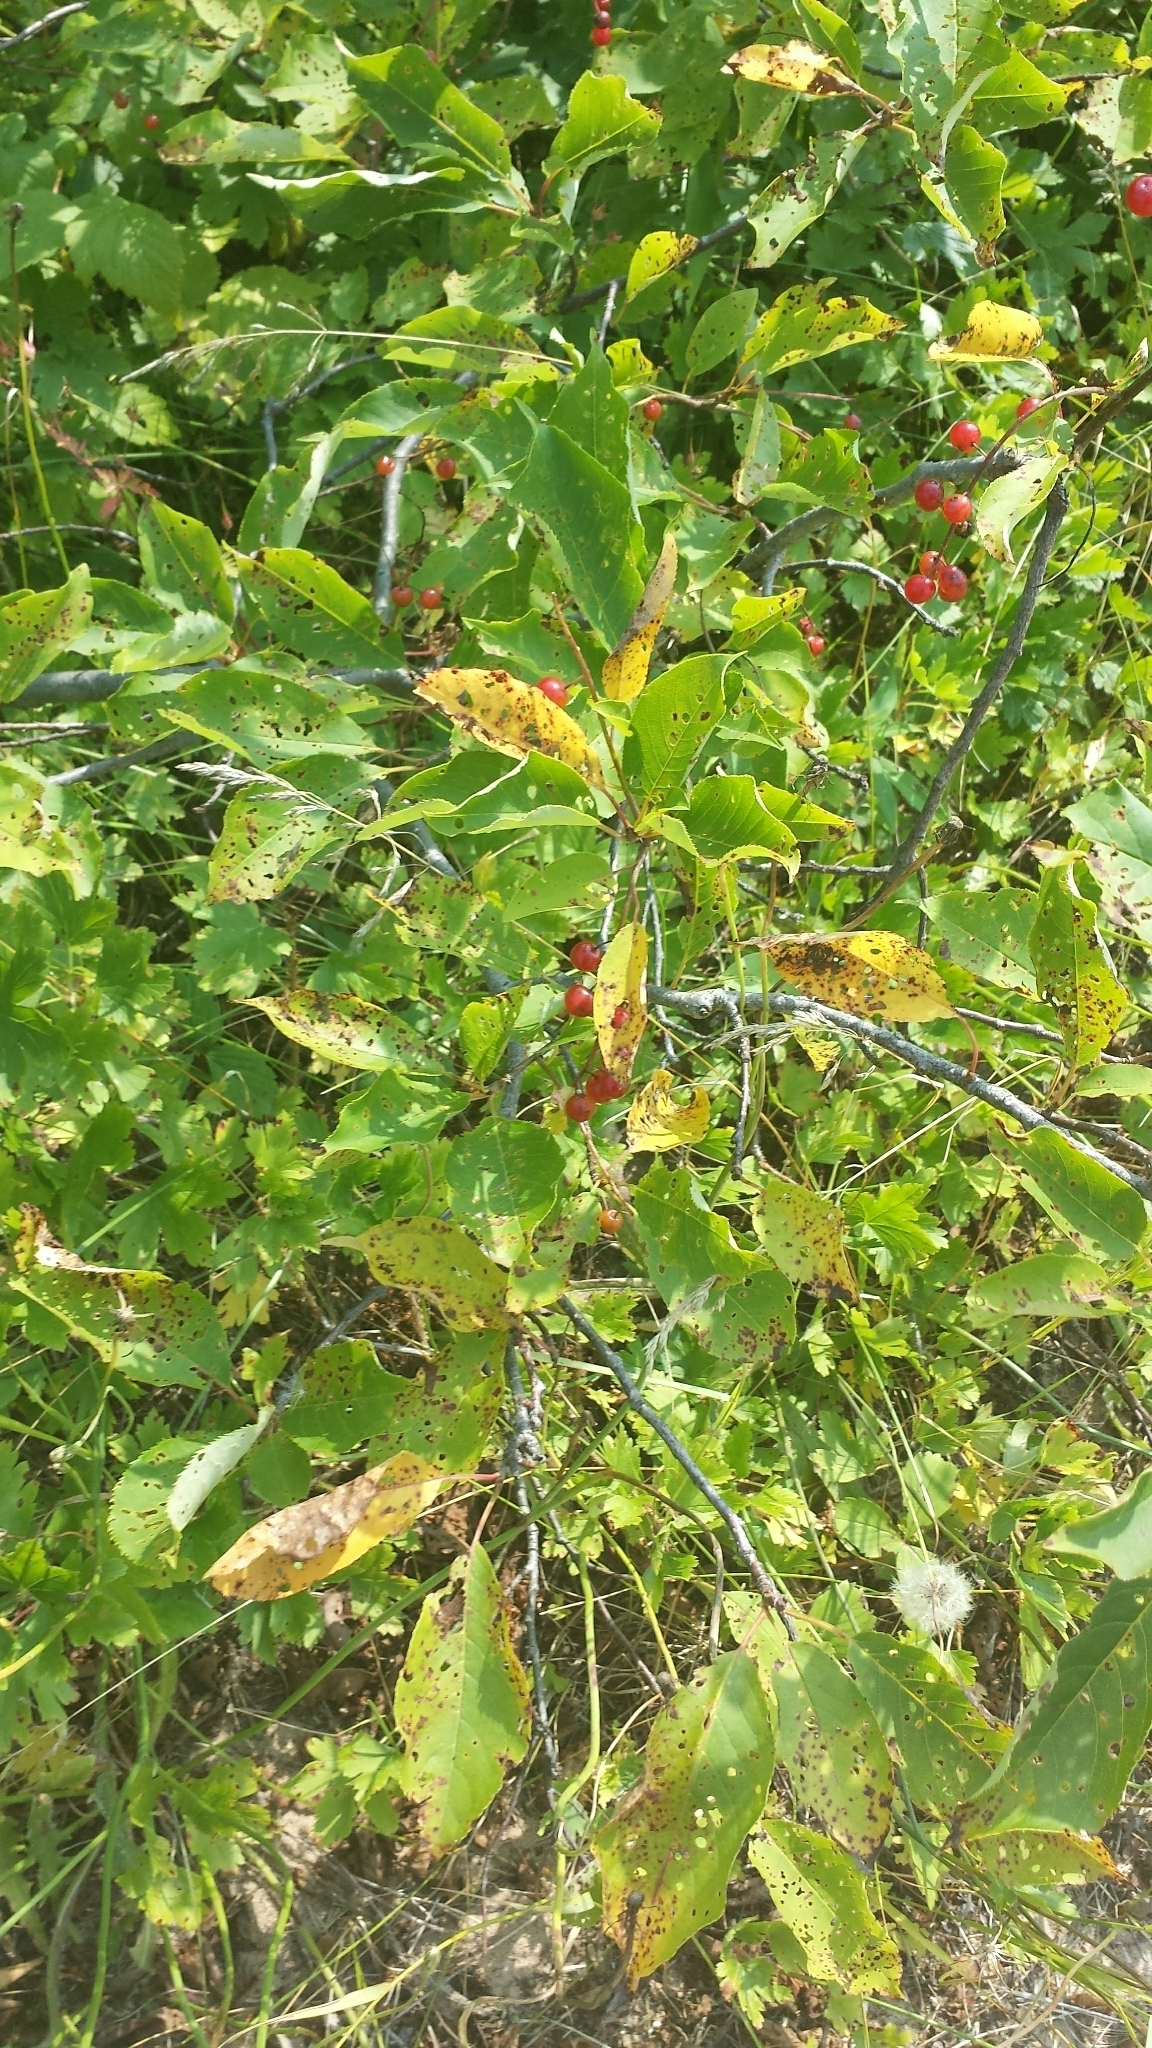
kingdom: Plantae
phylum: Tracheophyta
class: Magnoliopsida
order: Rosales
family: Rosaceae
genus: Prunus
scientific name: Prunus virginiana
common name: Chokecherry
